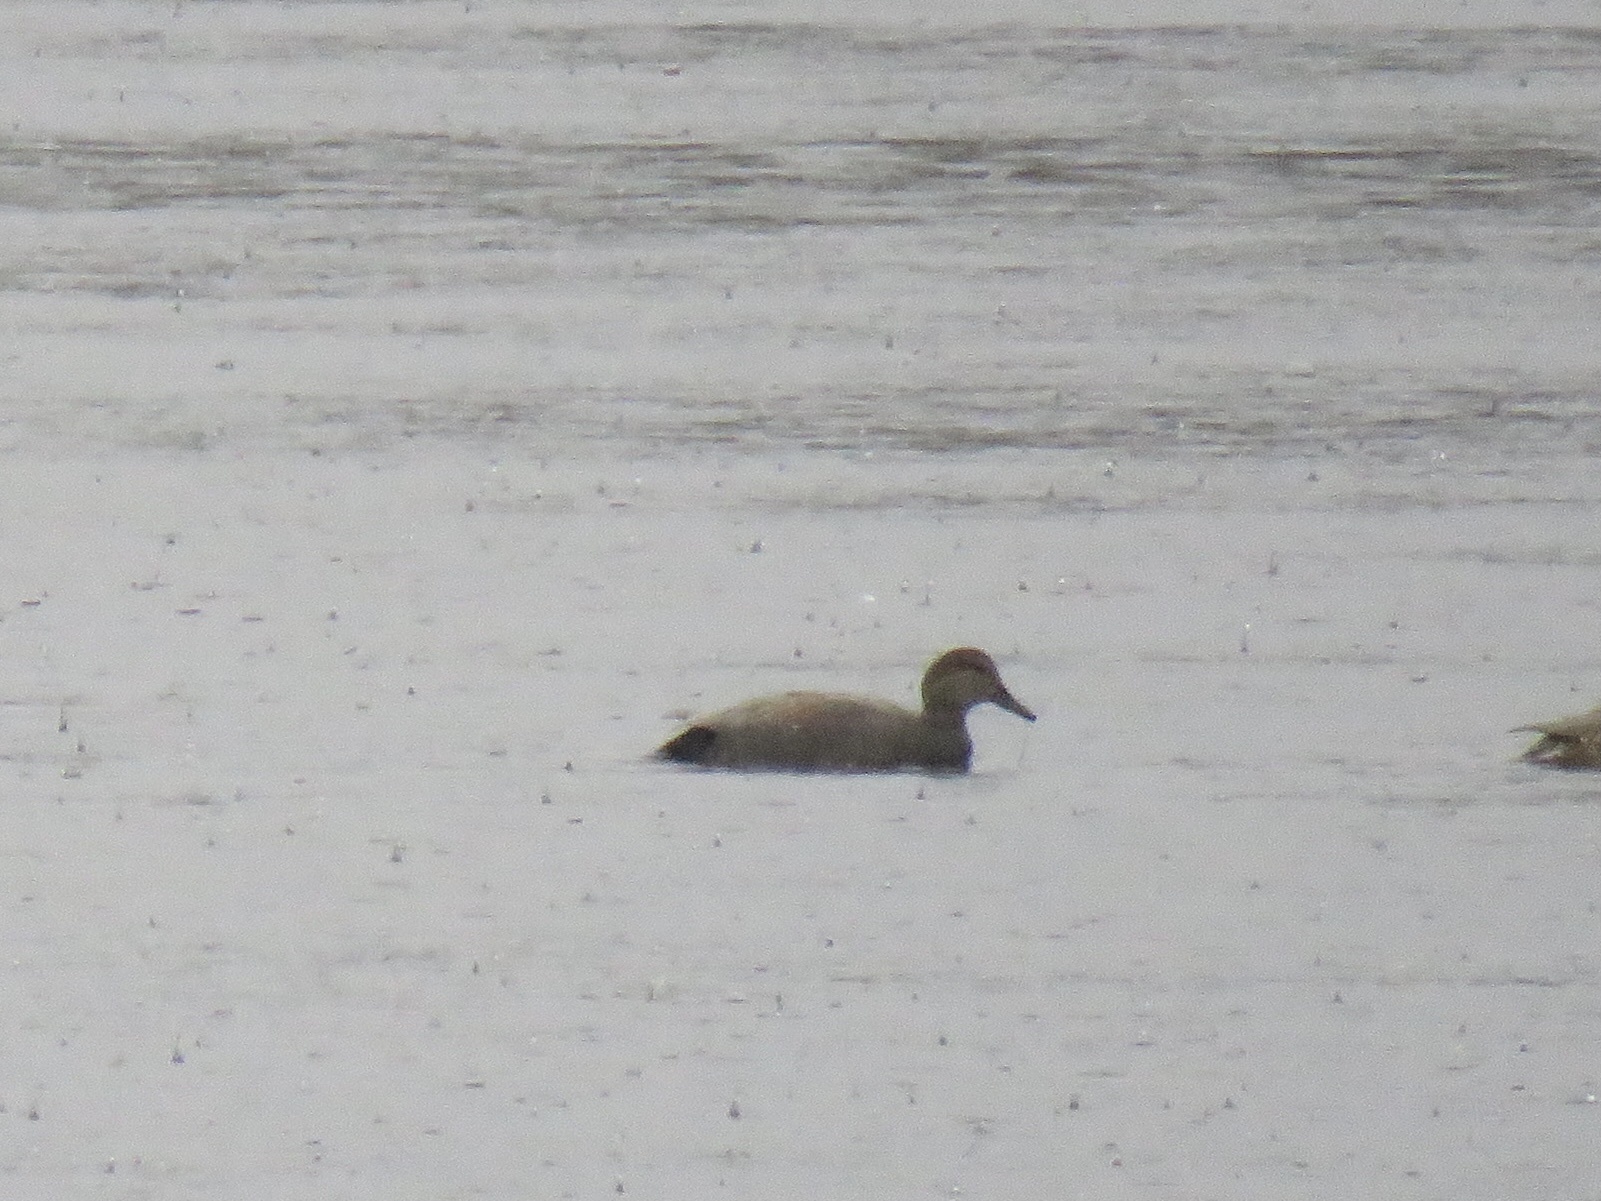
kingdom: Animalia
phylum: Chordata
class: Aves
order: Anseriformes
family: Anatidae
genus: Mareca
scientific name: Mareca strepera
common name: Gadwall
